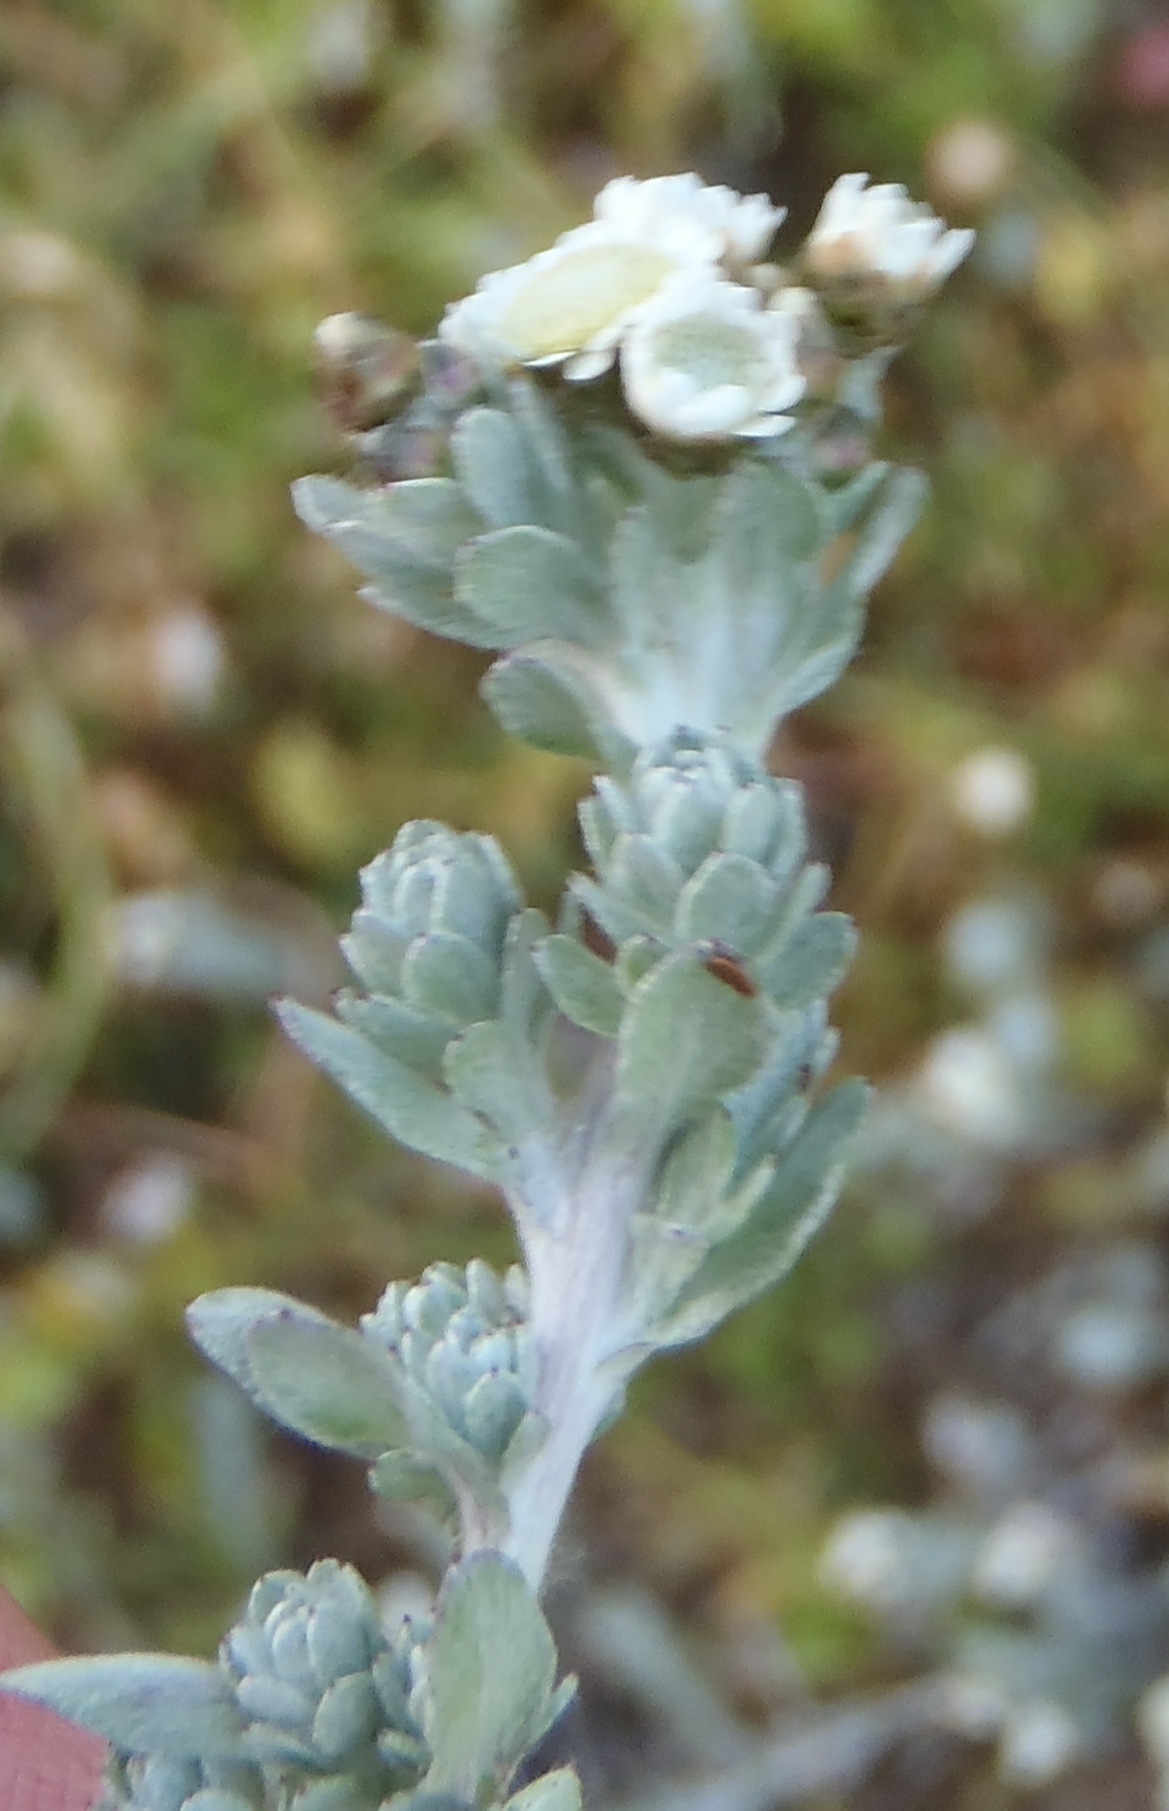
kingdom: Plantae
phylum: Tracheophyta
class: Magnoliopsida
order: Asterales
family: Asteraceae
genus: Gnaphalium
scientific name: Gnaphalium declinatum
